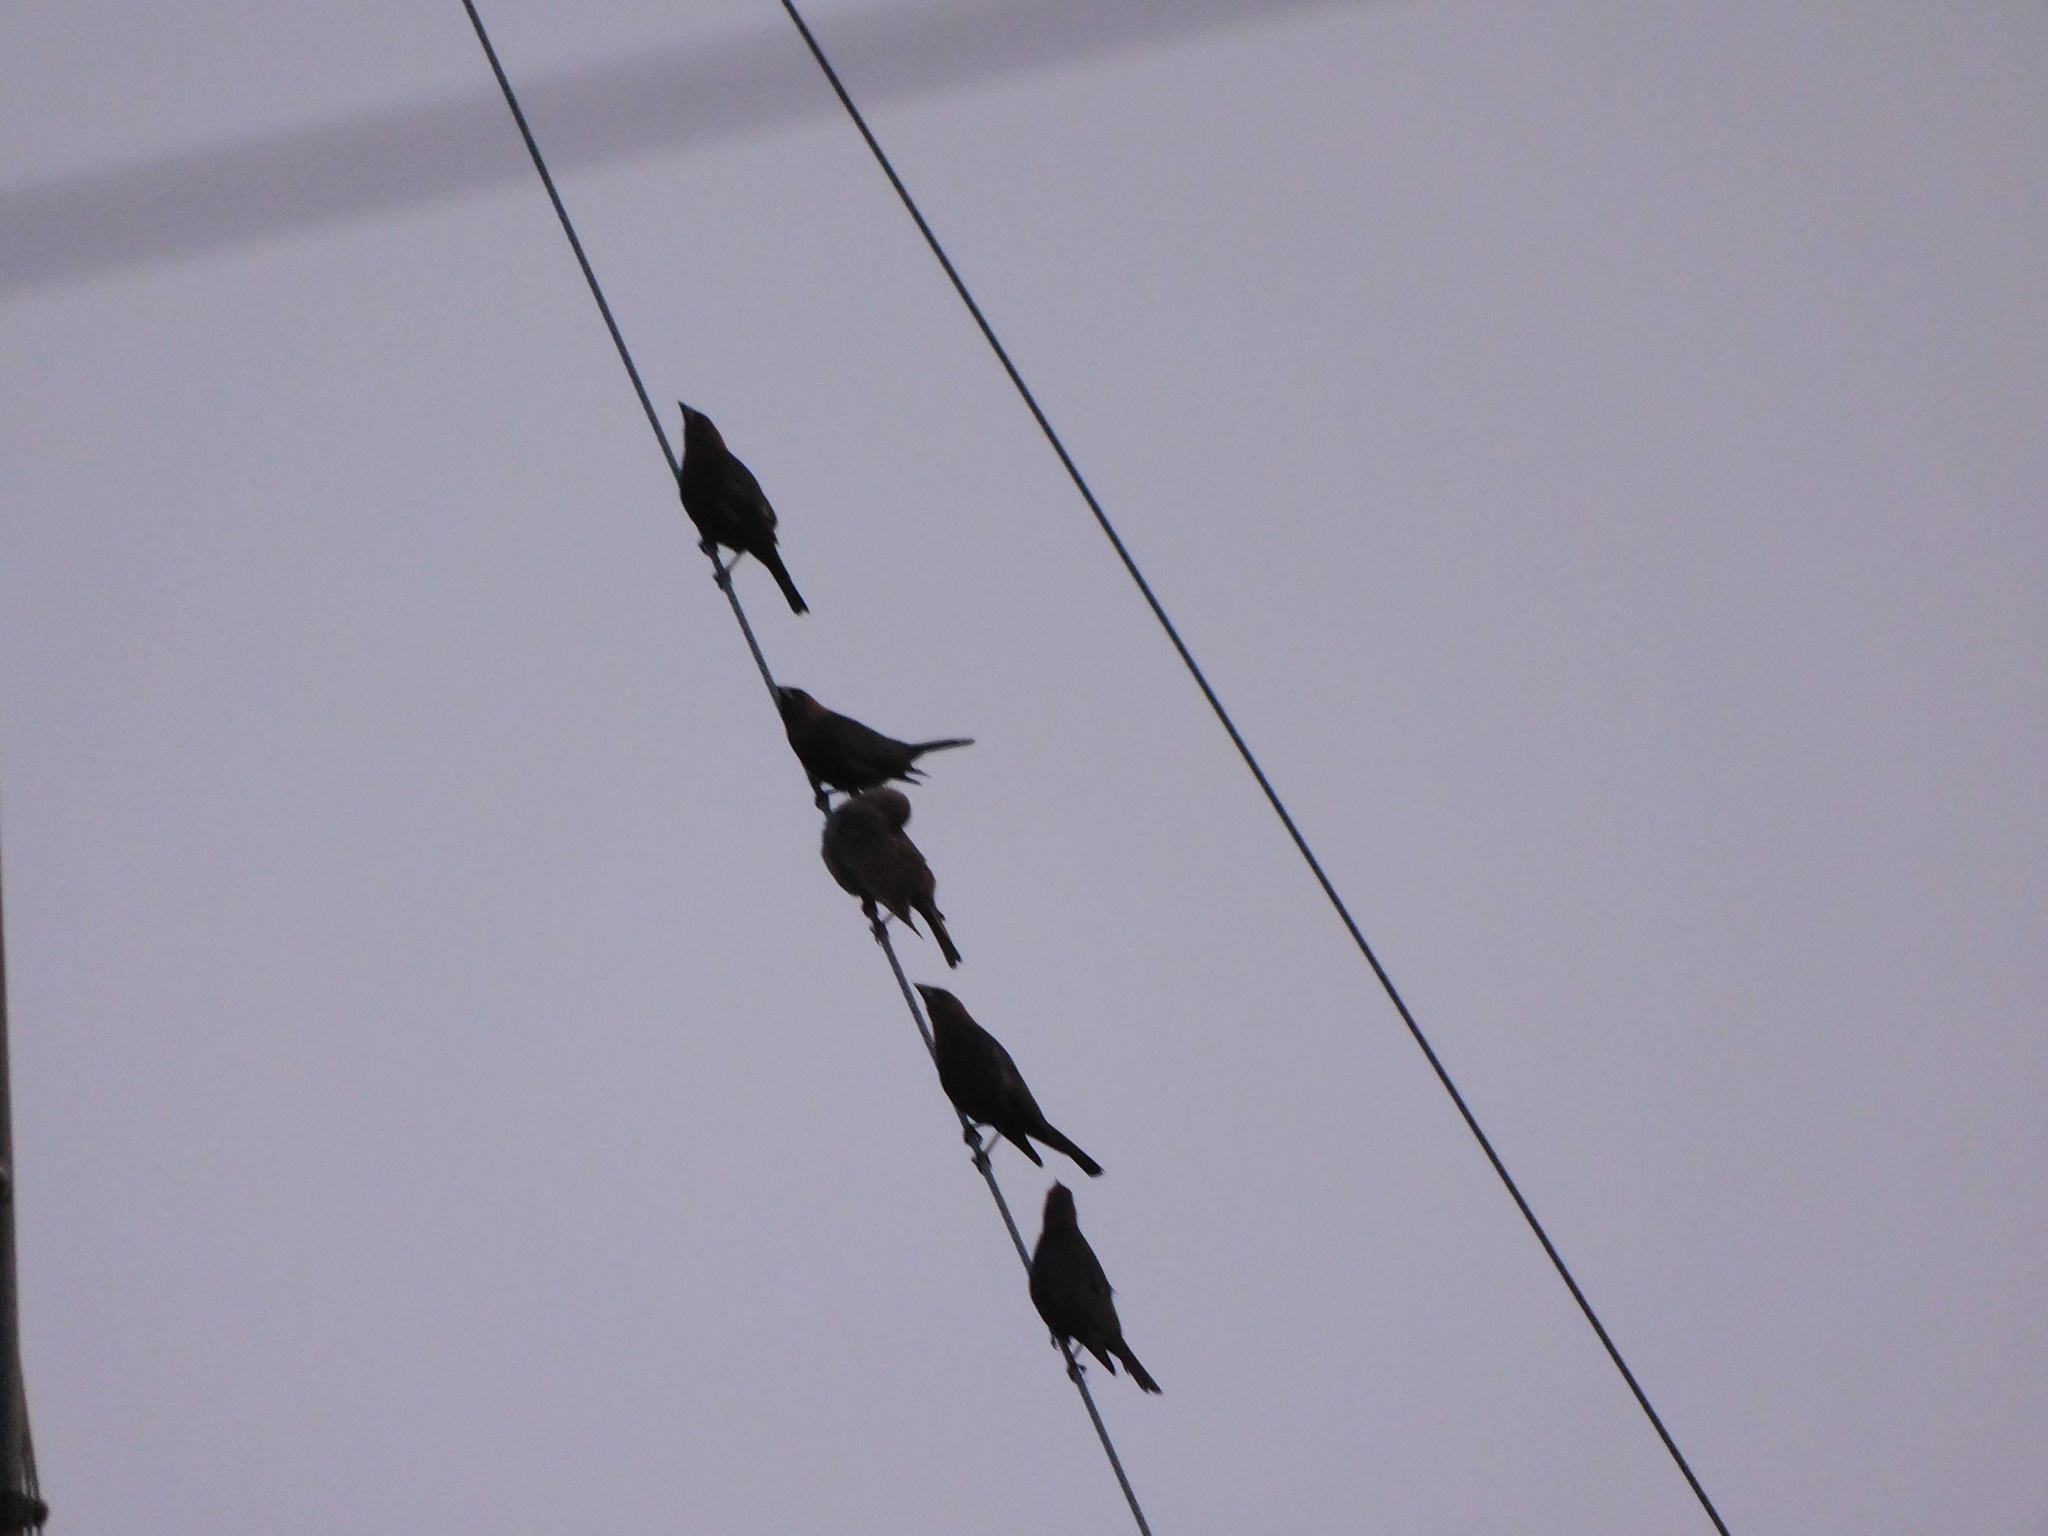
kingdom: Animalia
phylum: Chordata
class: Aves
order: Passeriformes
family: Icteridae
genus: Molothrus
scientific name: Molothrus ater
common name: Brown-headed cowbird
